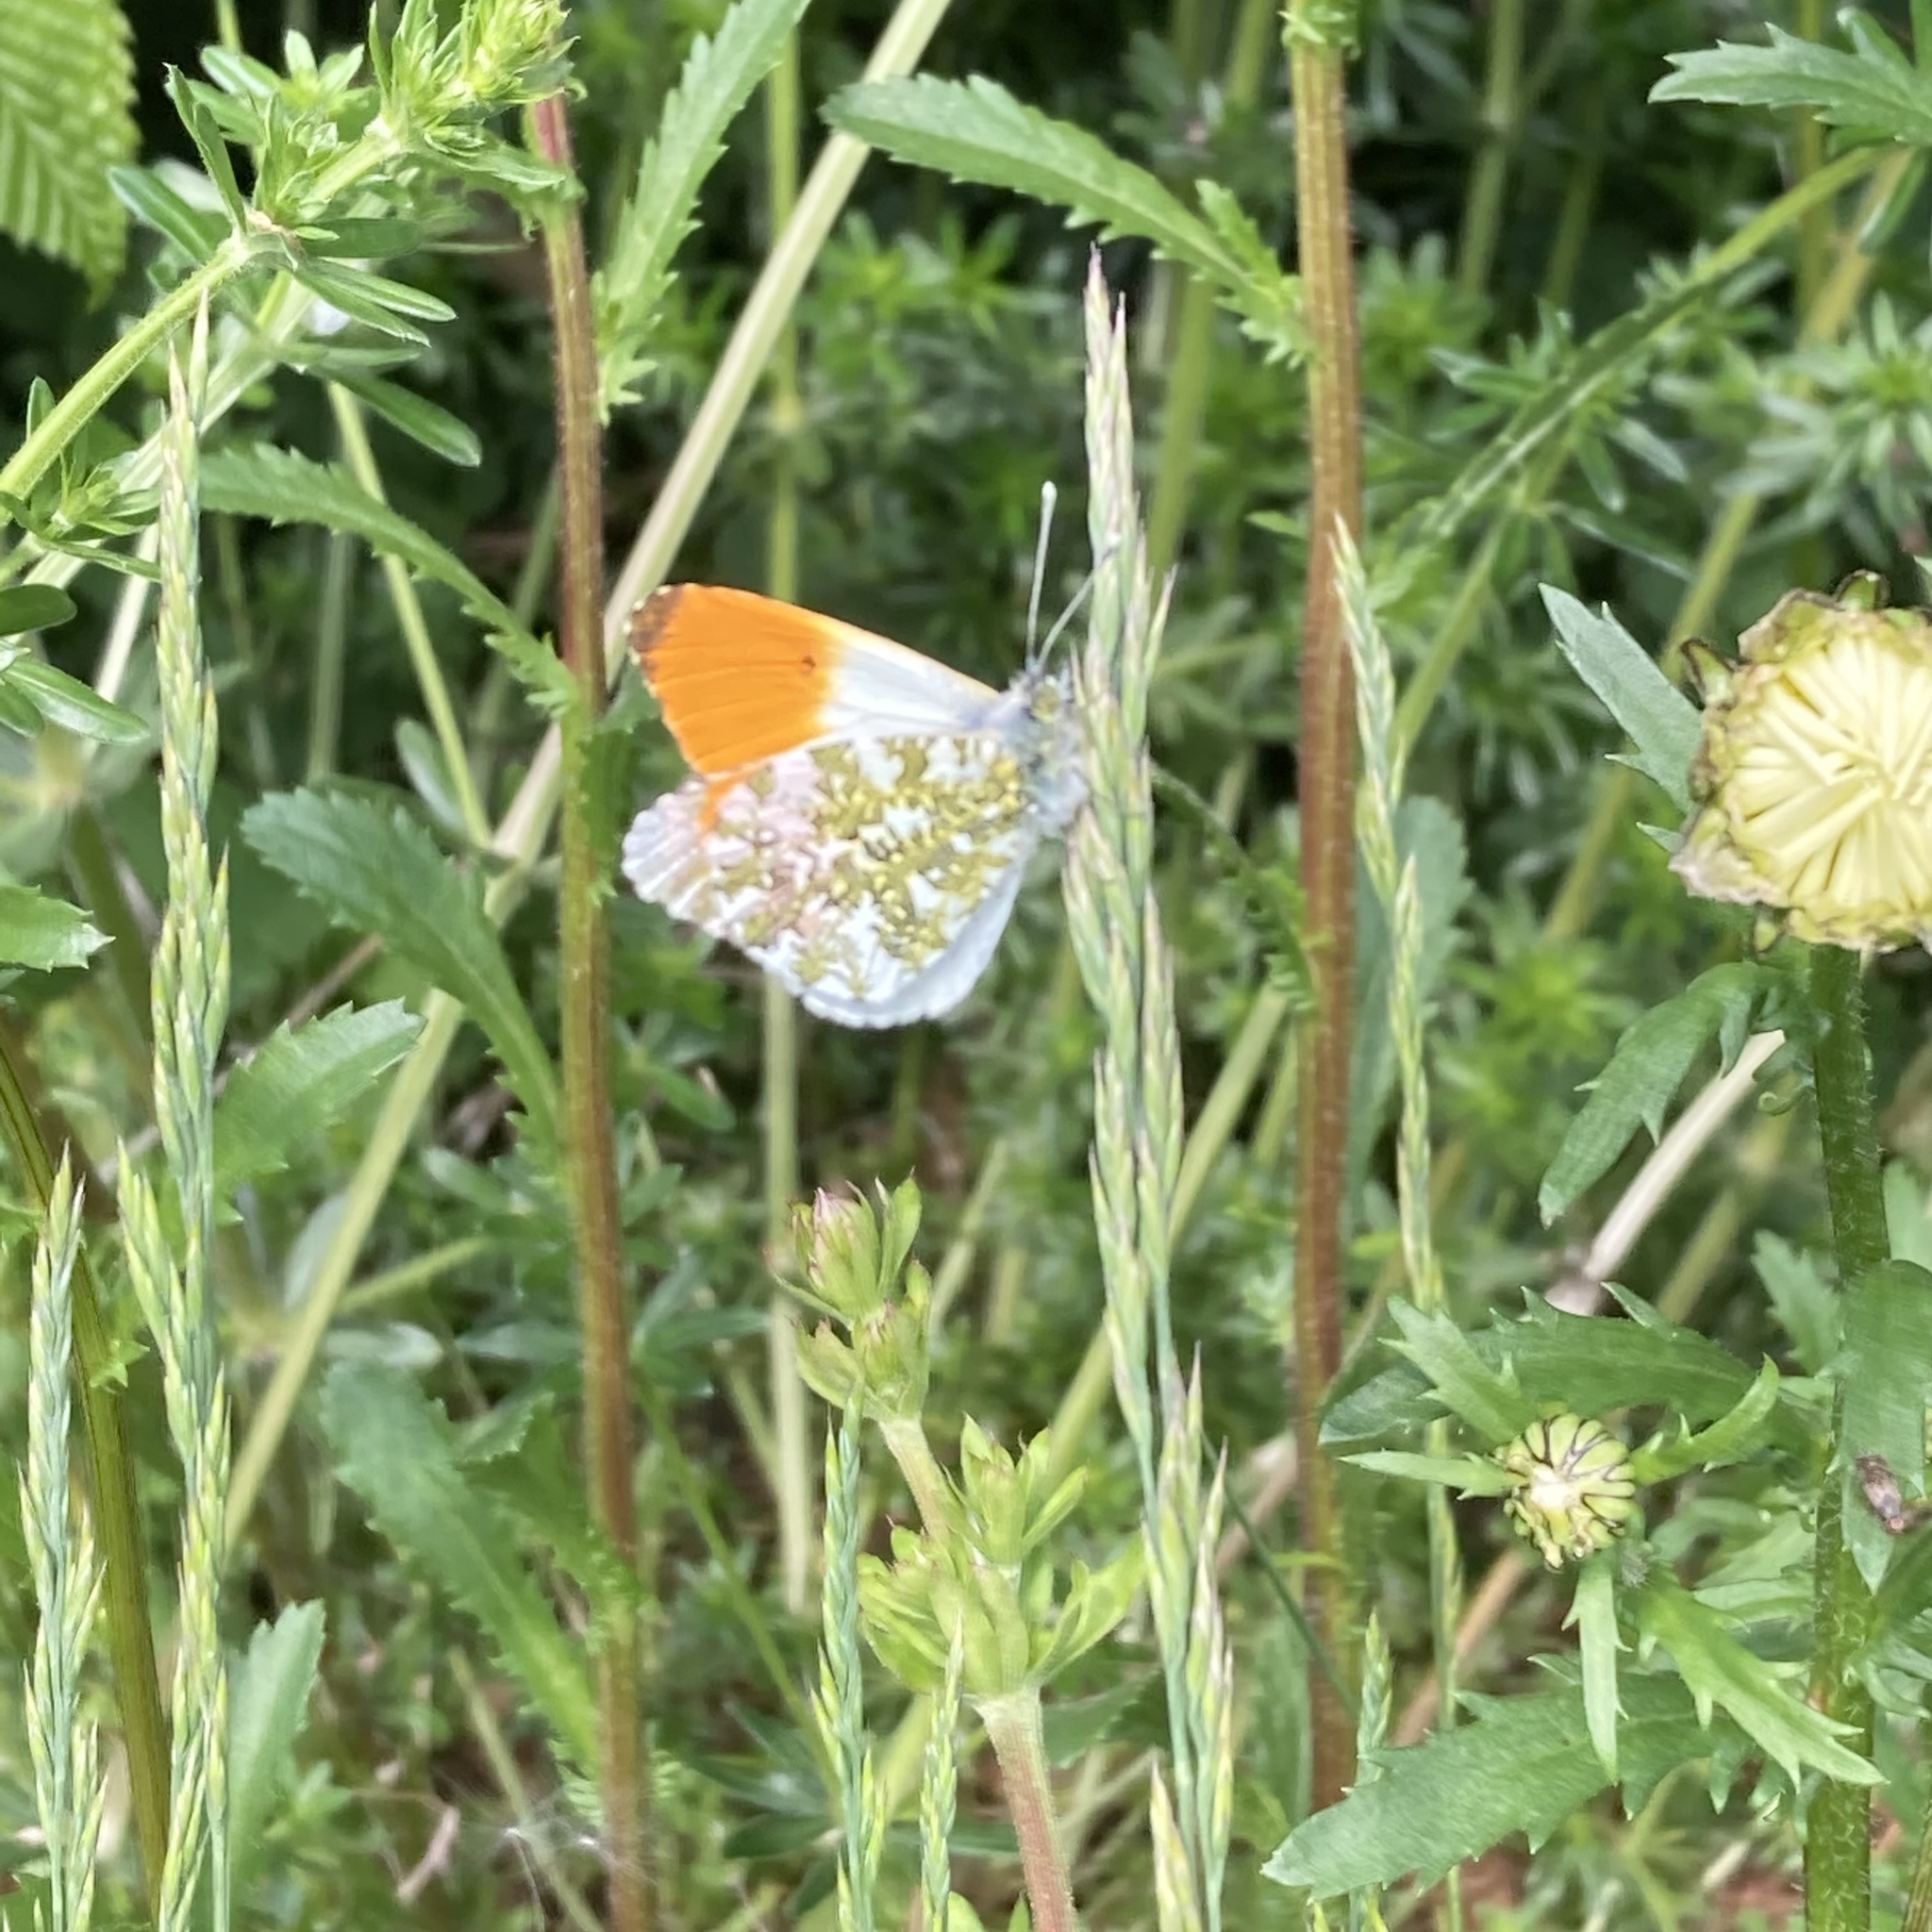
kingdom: Animalia
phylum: Arthropoda
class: Insecta
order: Lepidoptera
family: Pieridae
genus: Anthocharis
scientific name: Anthocharis cardamines
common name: Orange-tip
